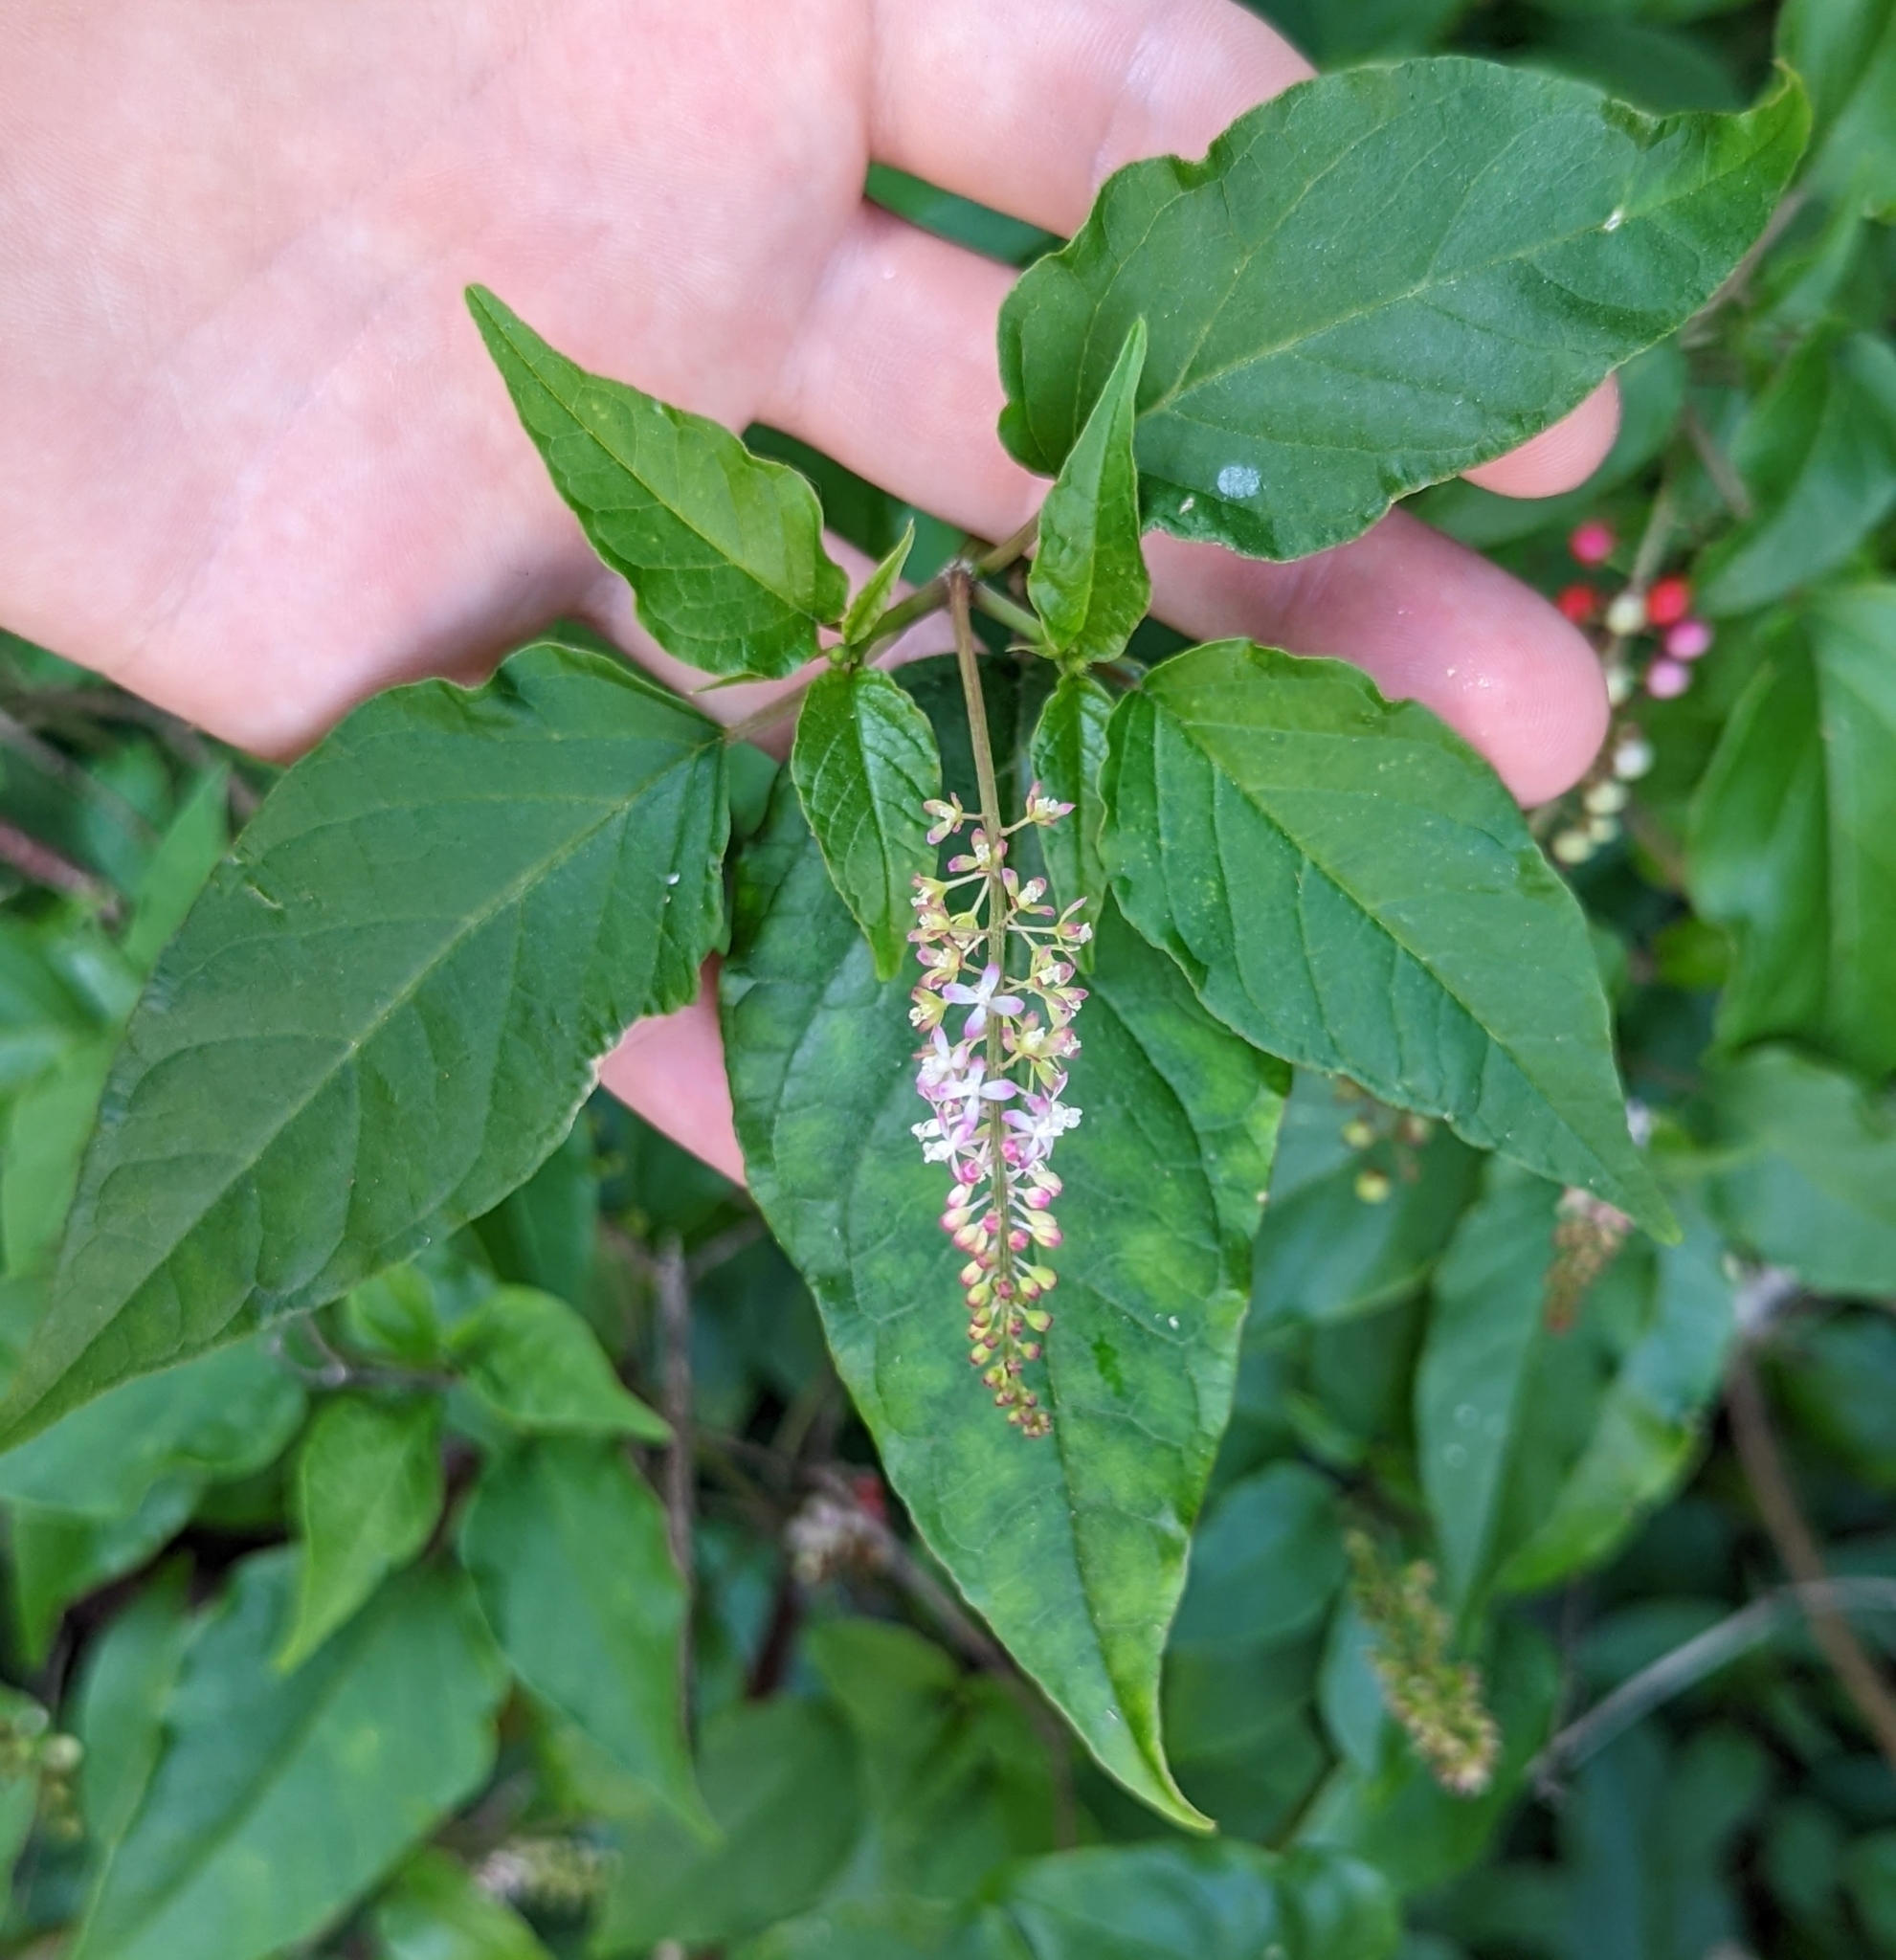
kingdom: Plantae
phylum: Tracheophyta
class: Magnoliopsida
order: Caryophyllales
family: Phytolaccaceae
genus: Rivina
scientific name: Rivina humilis
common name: Rougeplant
